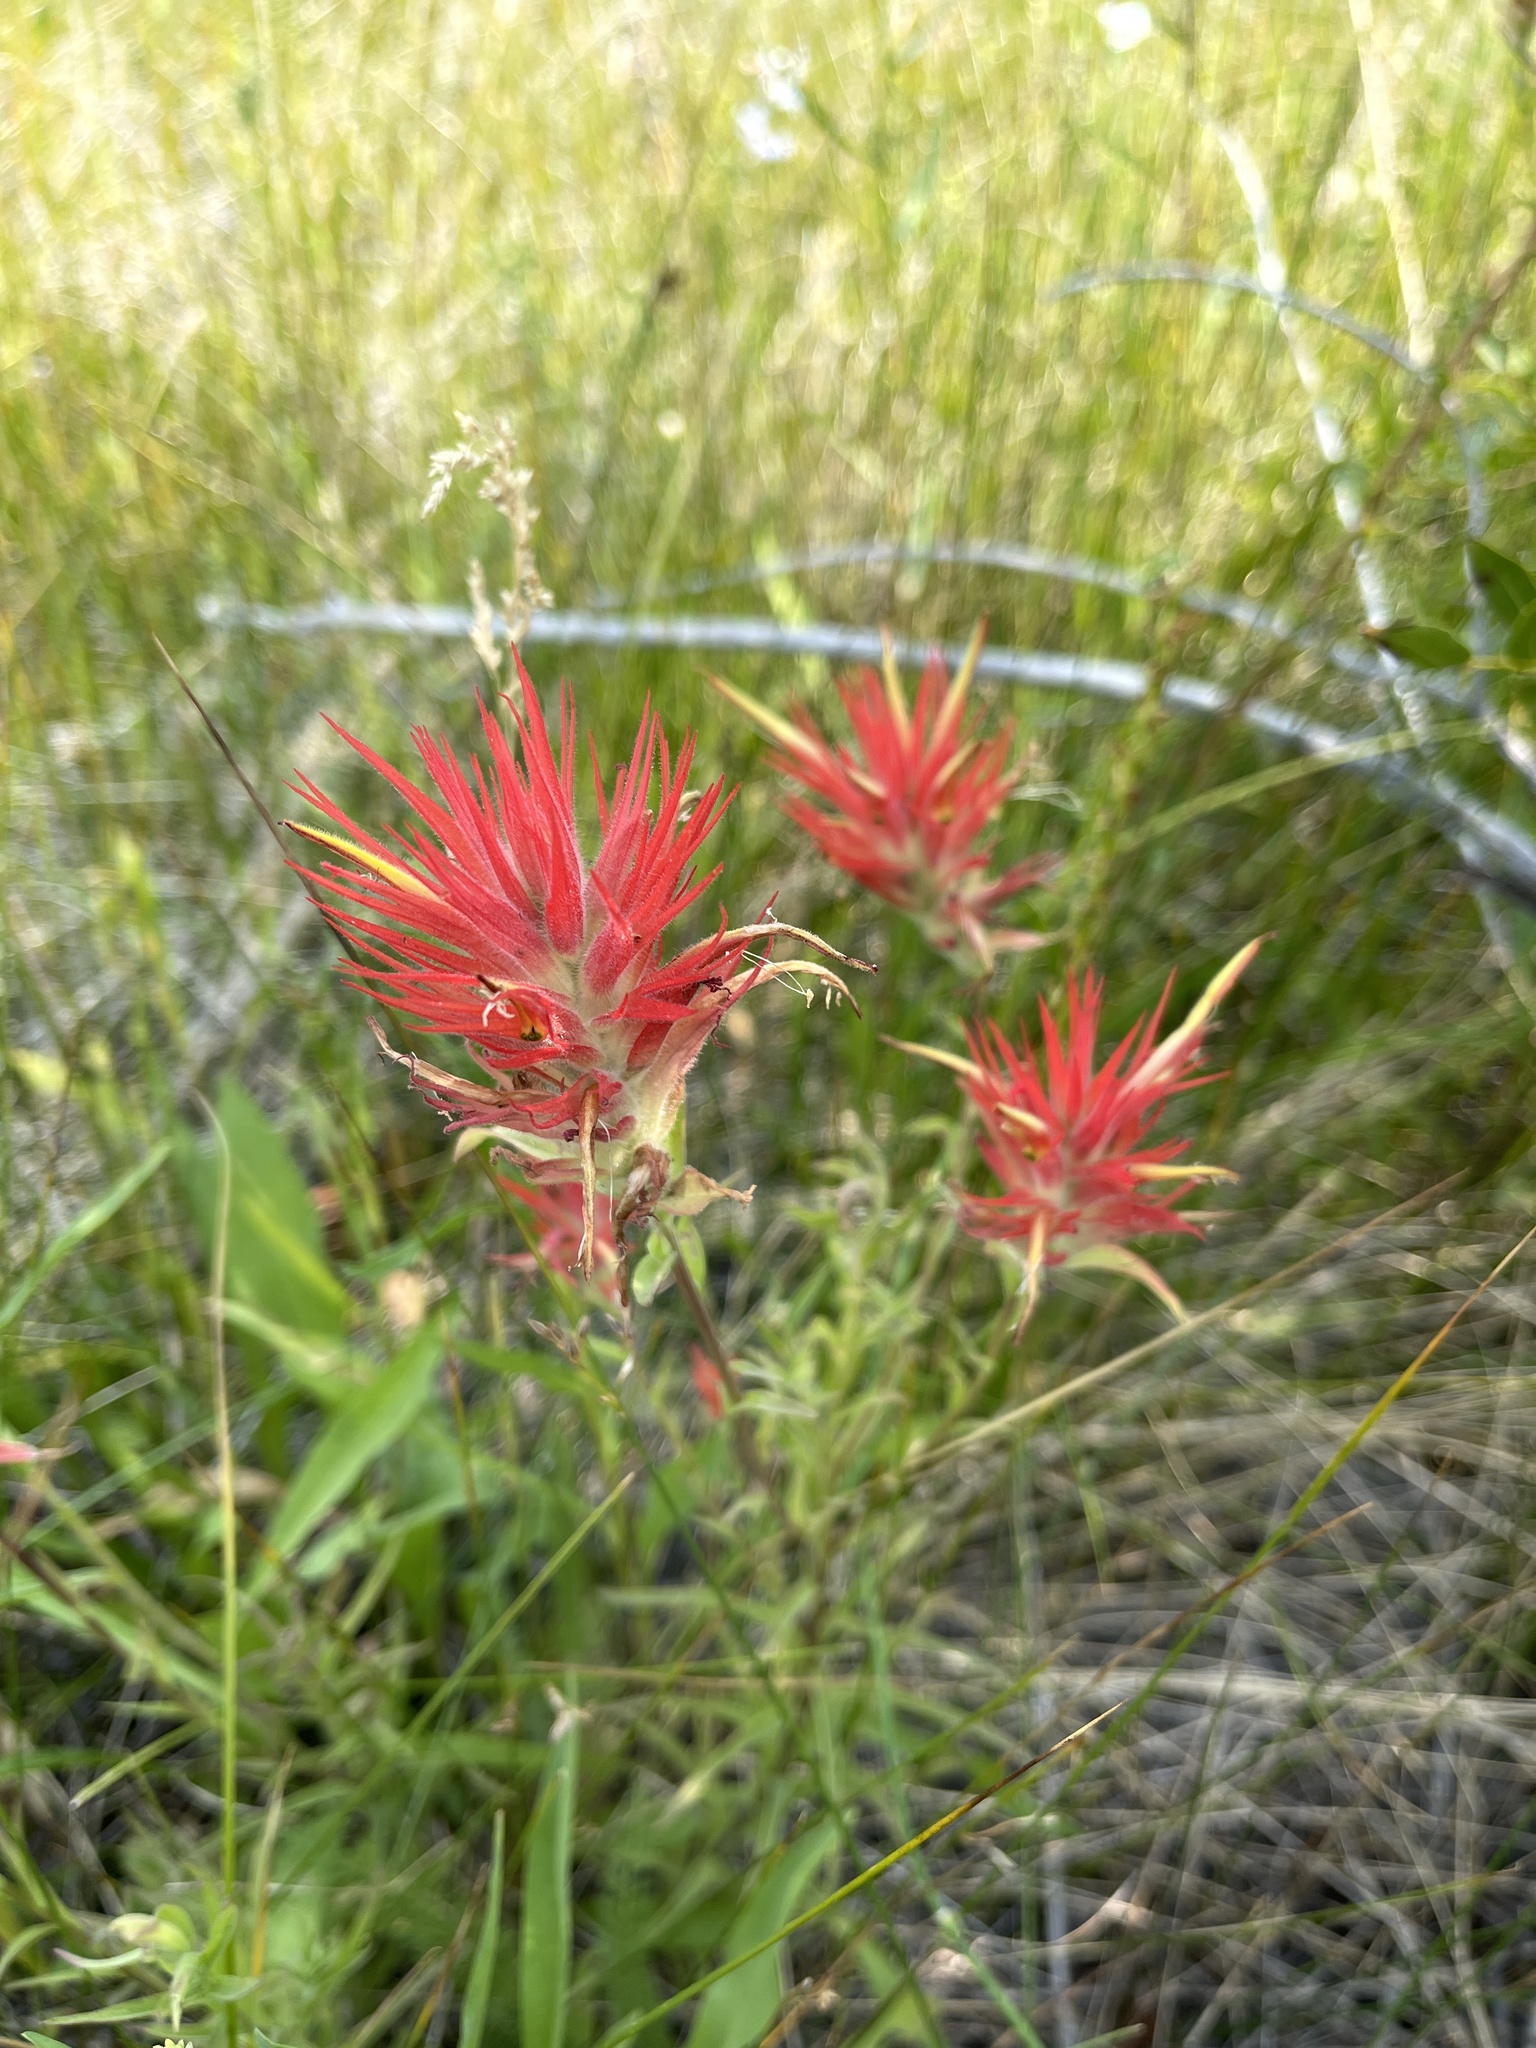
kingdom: Plantae
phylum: Tracheophyta
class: Magnoliopsida
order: Lamiales
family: Orobanchaceae
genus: Castilleja
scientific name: Castilleja miniata
